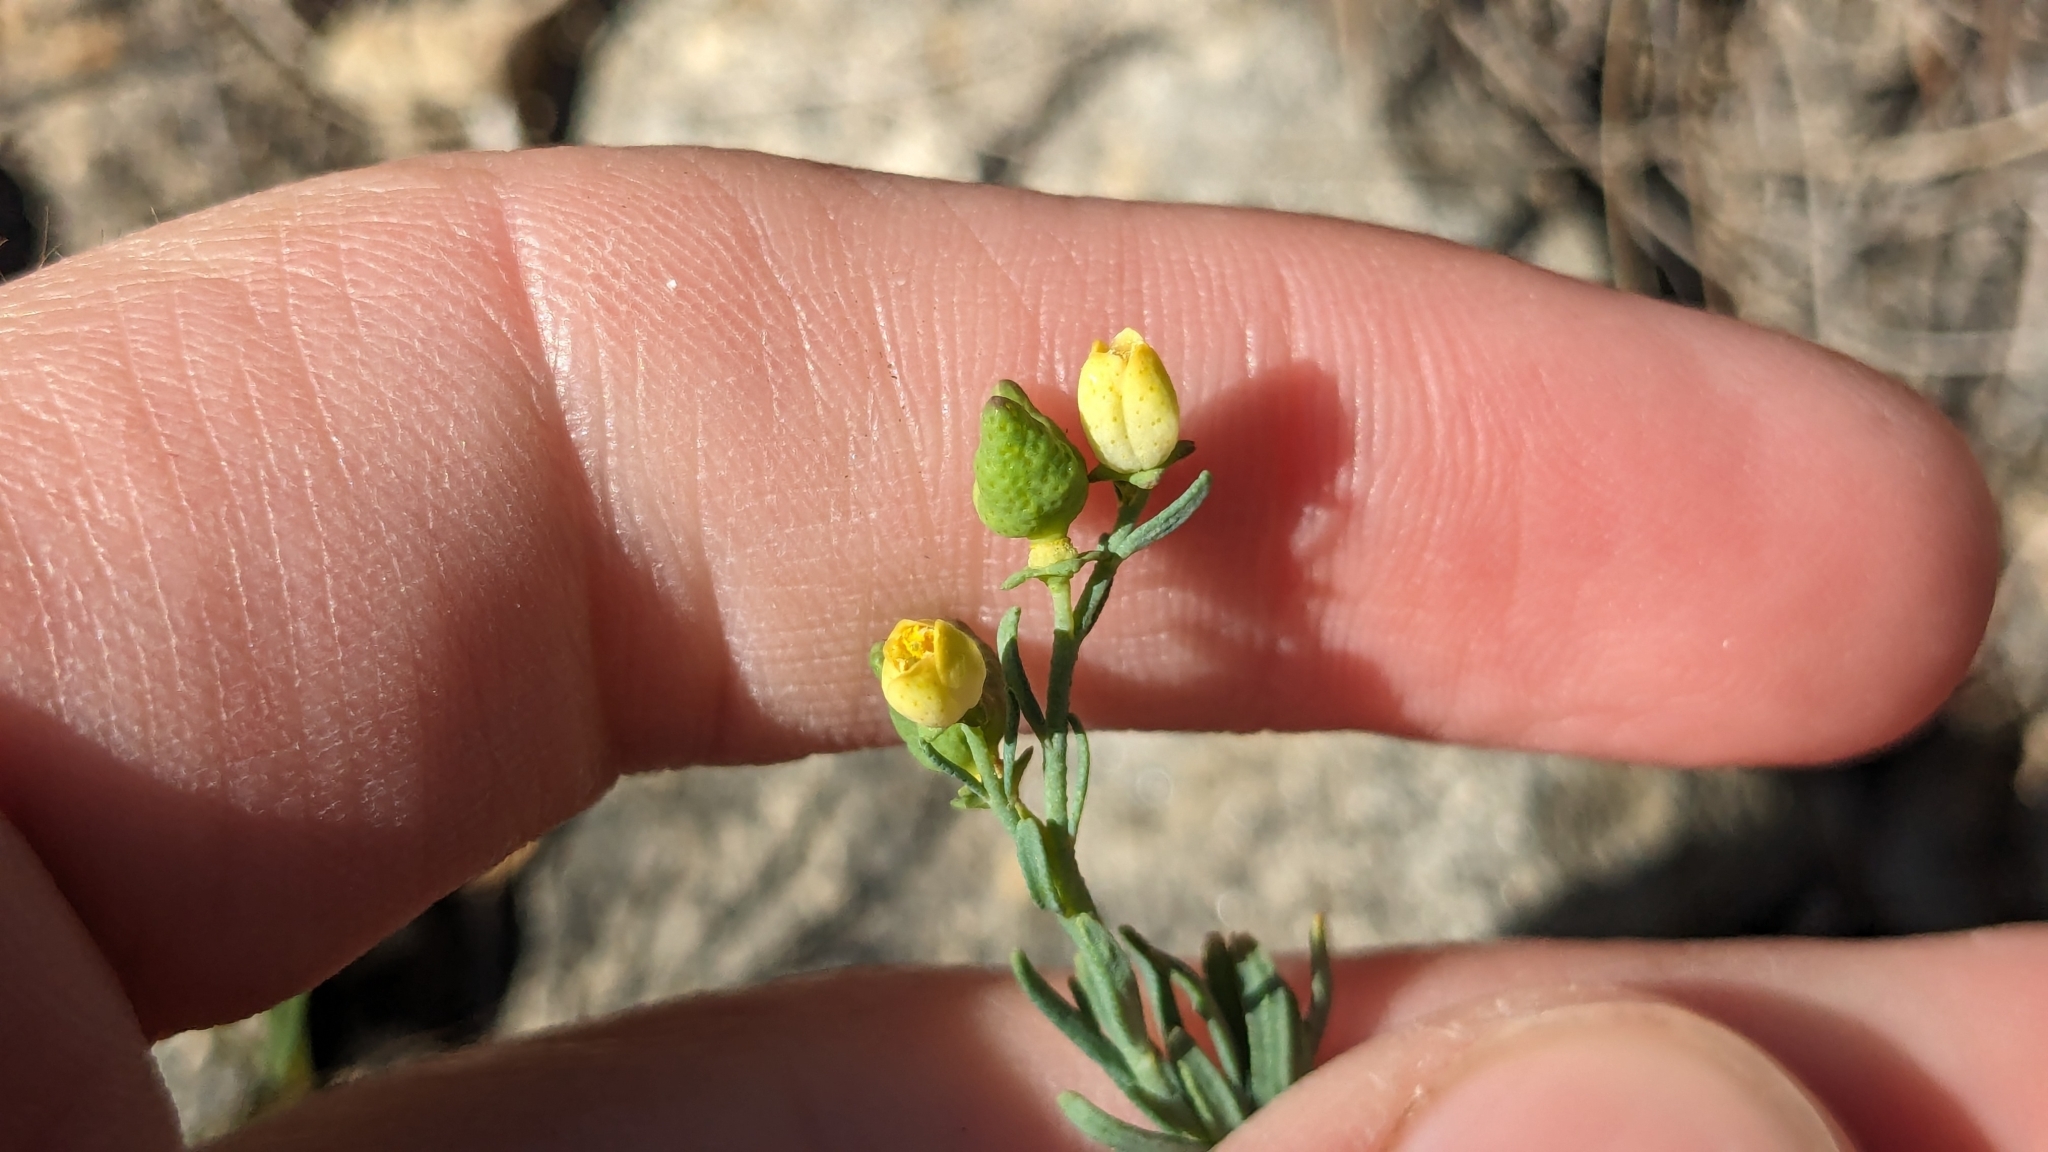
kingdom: Plantae
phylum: Tracheophyta
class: Magnoliopsida
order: Sapindales
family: Rutaceae
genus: Thamnosma
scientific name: Thamnosma texana
